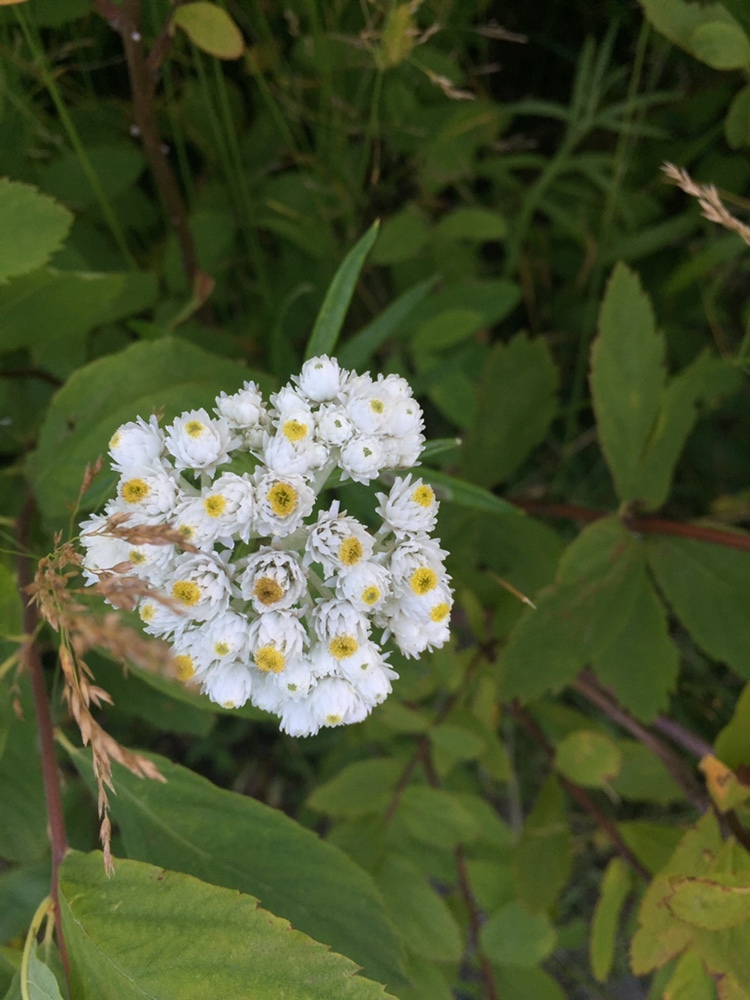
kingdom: Plantae
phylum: Tracheophyta
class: Magnoliopsida
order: Asterales
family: Asteraceae
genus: Anaphalis
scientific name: Anaphalis margaritacea
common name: Pearly everlasting
